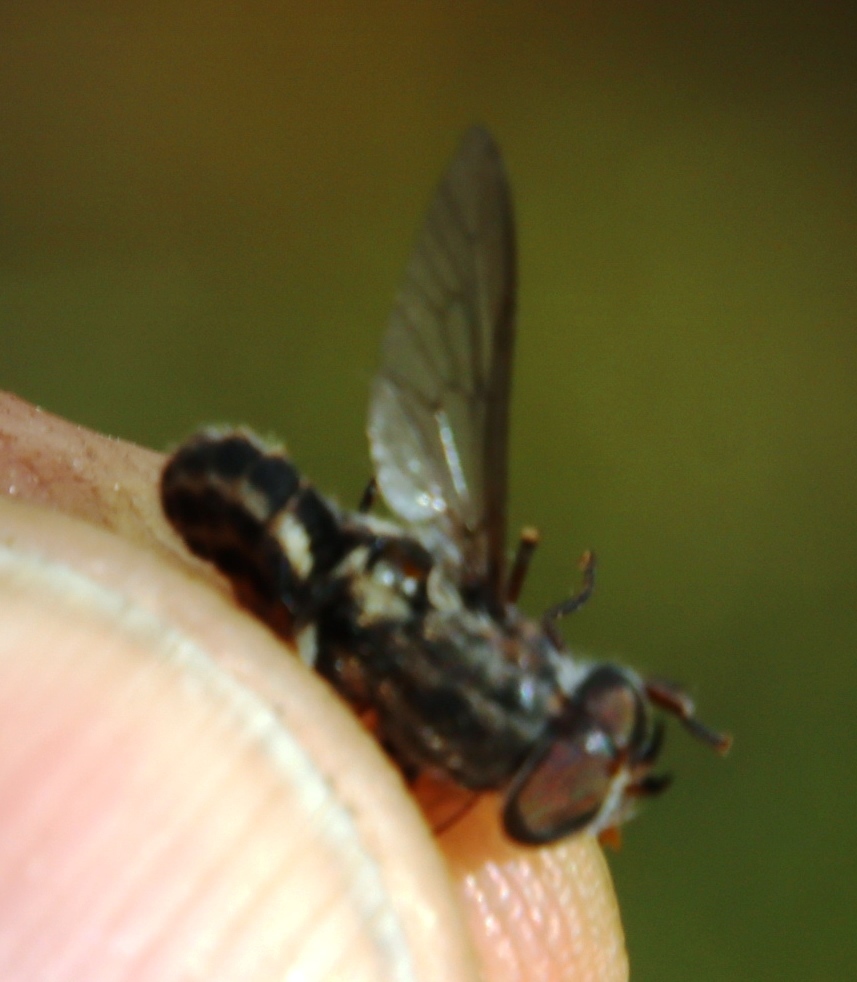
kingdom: Animalia
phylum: Arthropoda
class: Insecta
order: Diptera
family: Tabanidae
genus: Tabanus
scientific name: Tabanus taeniatus
